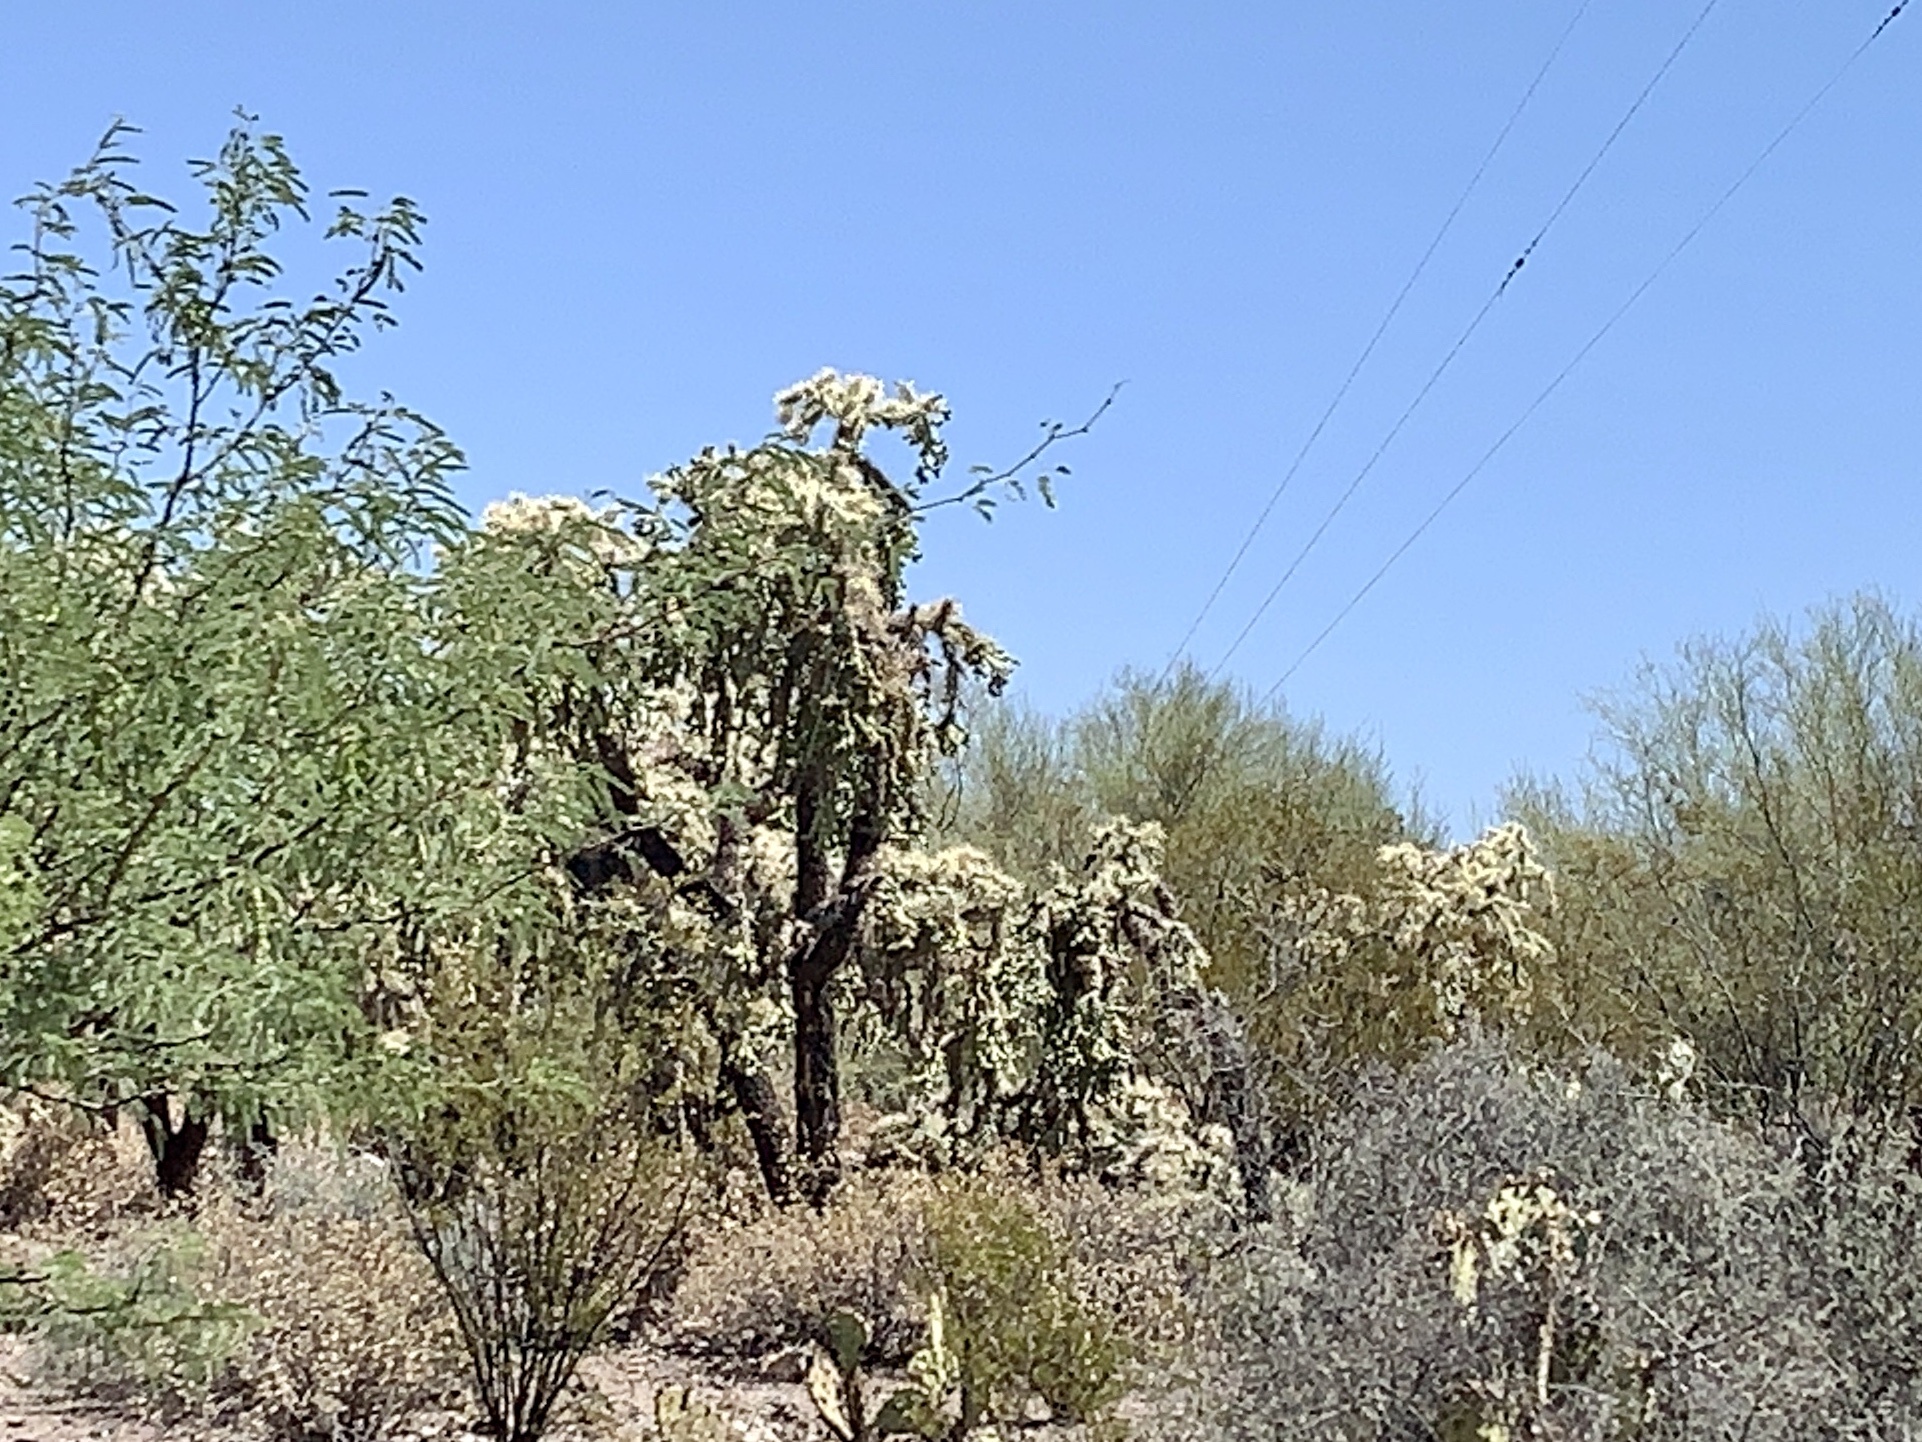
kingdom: Plantae
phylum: Tracheophyta
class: Magnoliopsida
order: Caryophyllales
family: Cactaceae
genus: Cylindropuntia
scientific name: Cylindropuntia fulgida
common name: Jumping cholla
